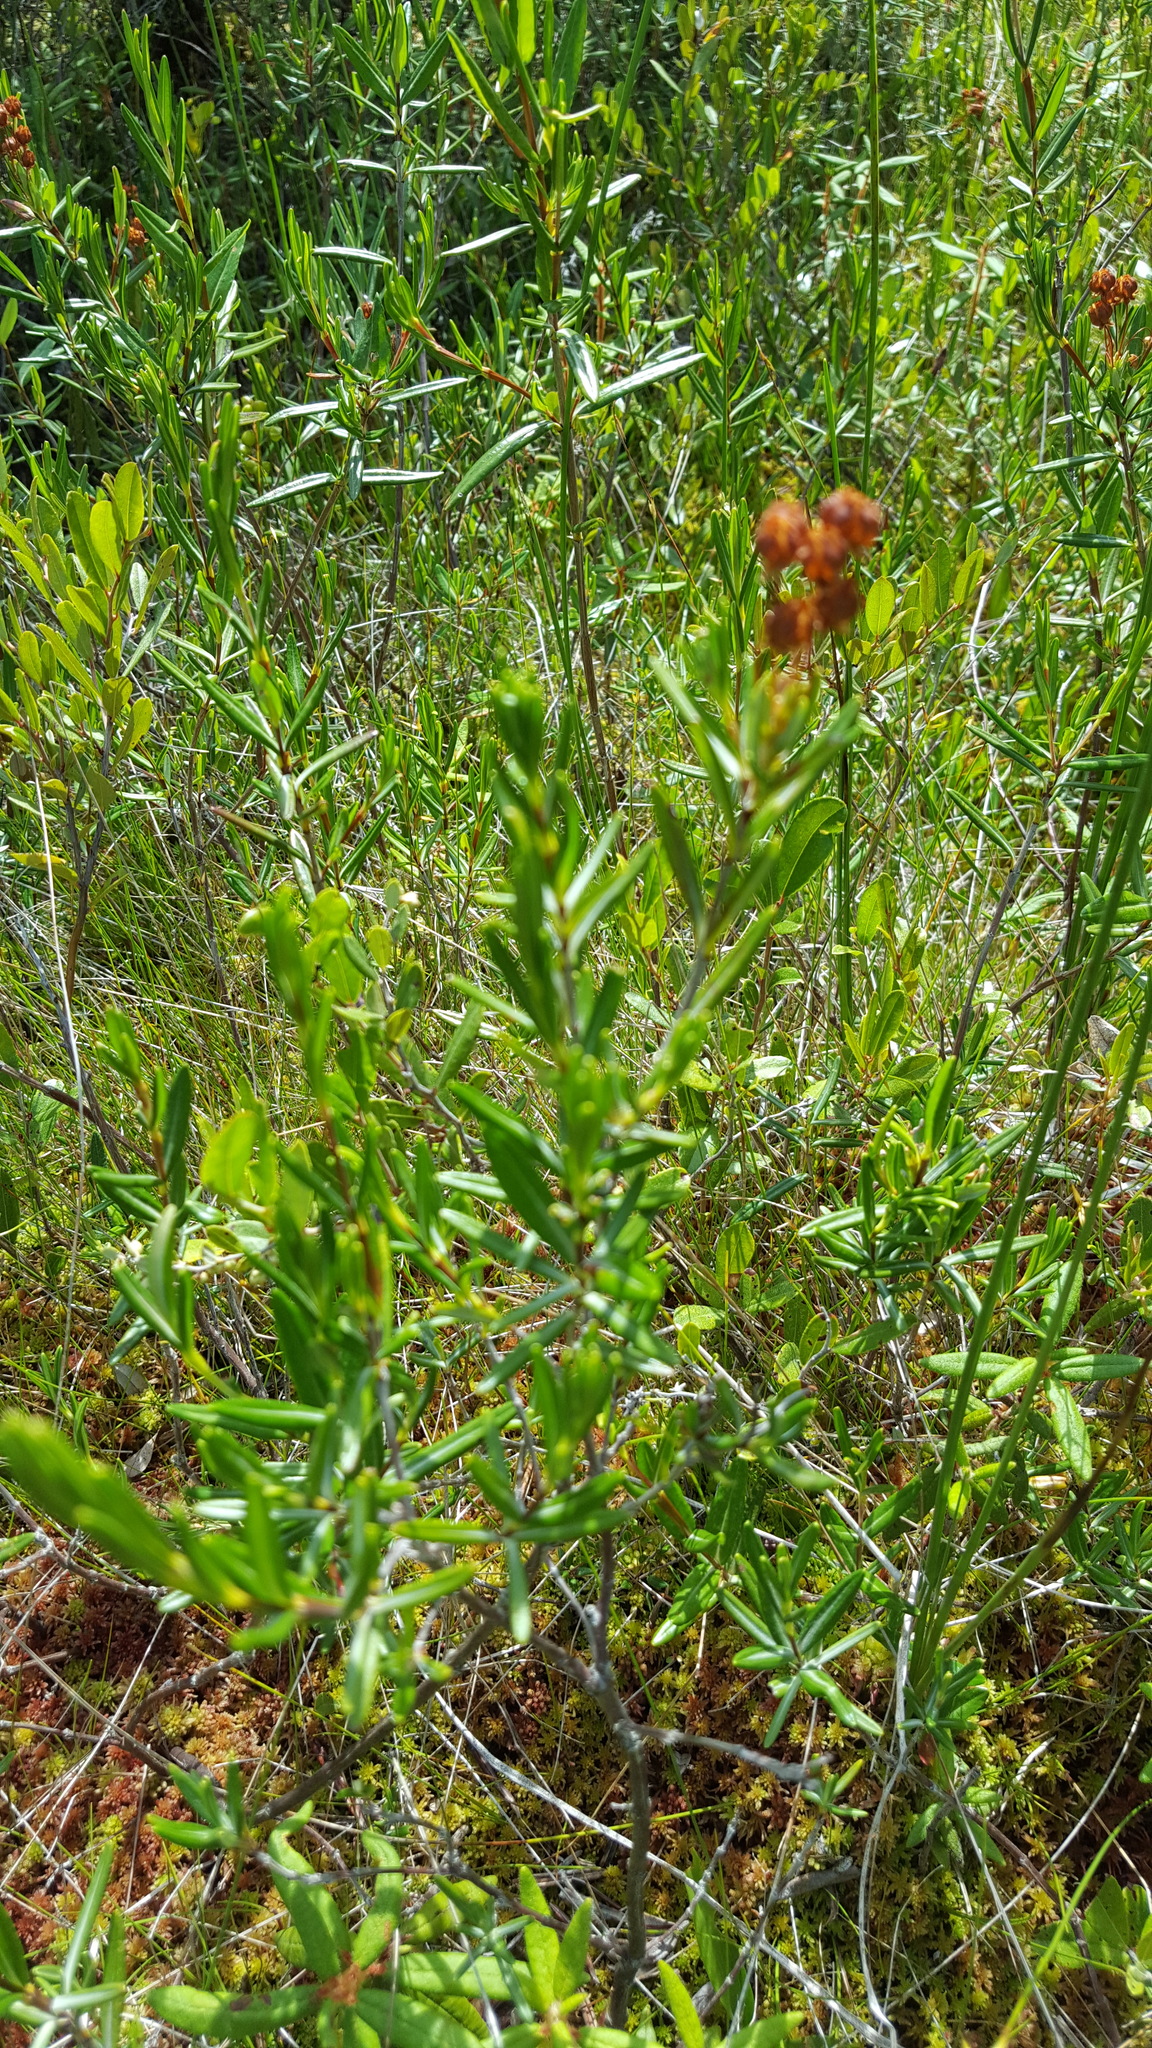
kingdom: Plantae
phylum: Tracheophyta
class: Magnoliopsida
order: Ericales
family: Ericaceae
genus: Kalmia
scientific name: Kalmia polifolia
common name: Bog-laurel
